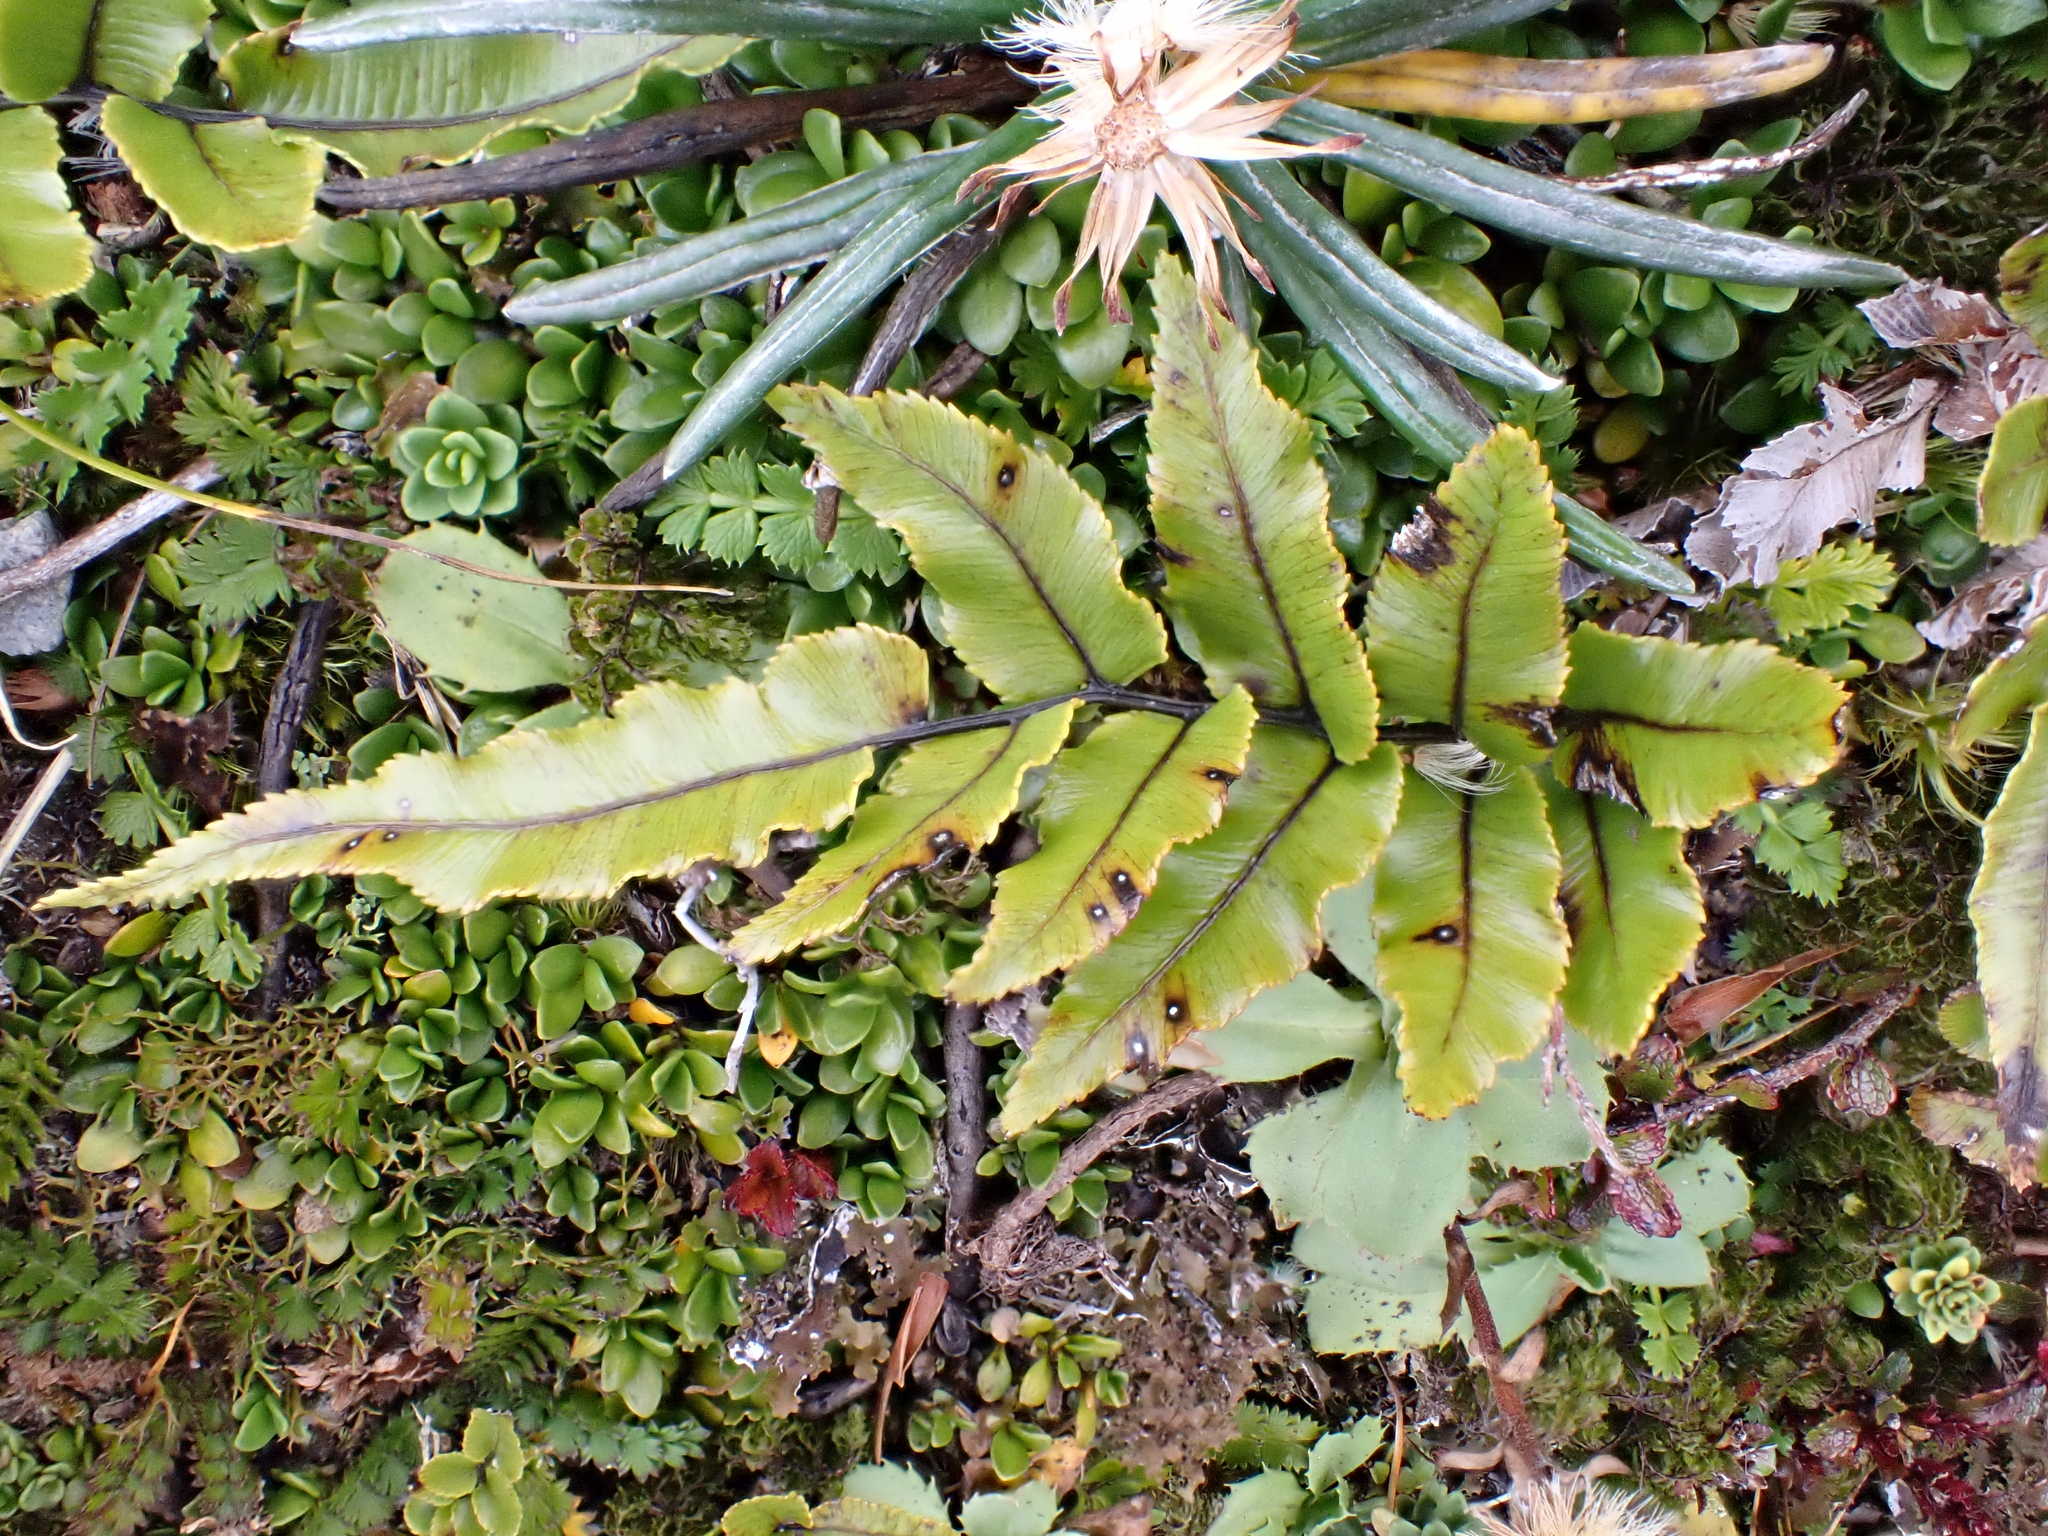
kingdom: Plantae
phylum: Tracheophyta
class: Polypodiopsida
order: Polypodiales
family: Blechnaceae
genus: Parablechnum
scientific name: Parablechnum procerum
